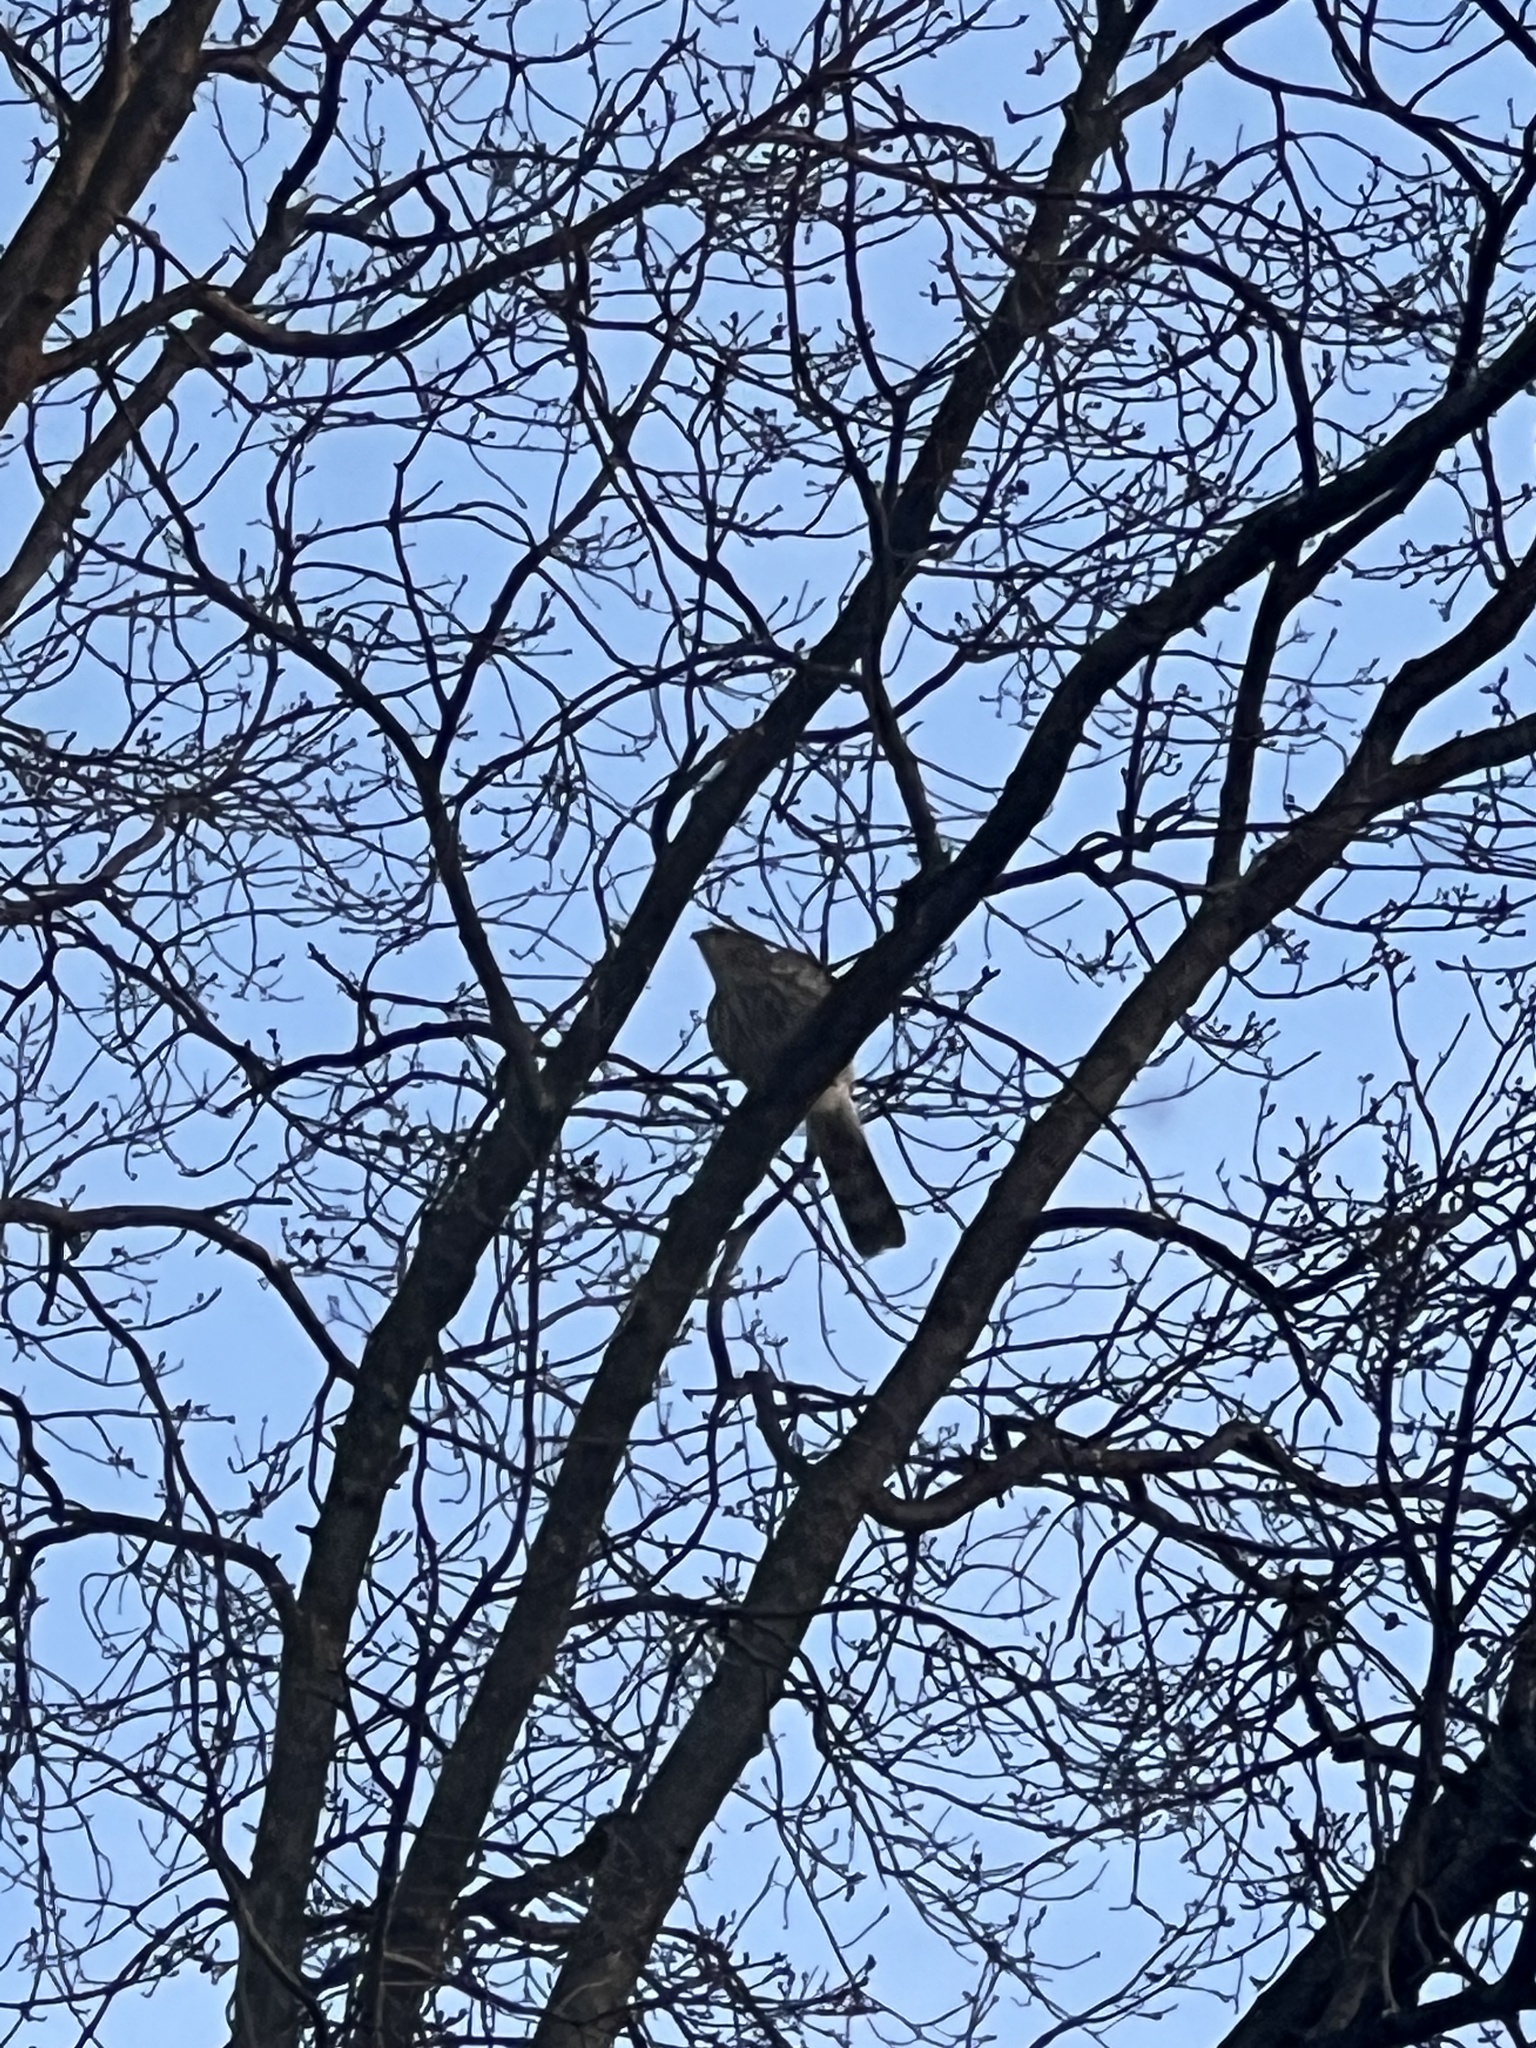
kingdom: Animalia
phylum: Chordata
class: Aves
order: Accipitriformes
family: Accipitridae
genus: Accipiter
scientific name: Accipiter cooperii
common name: Cooper's hawk
